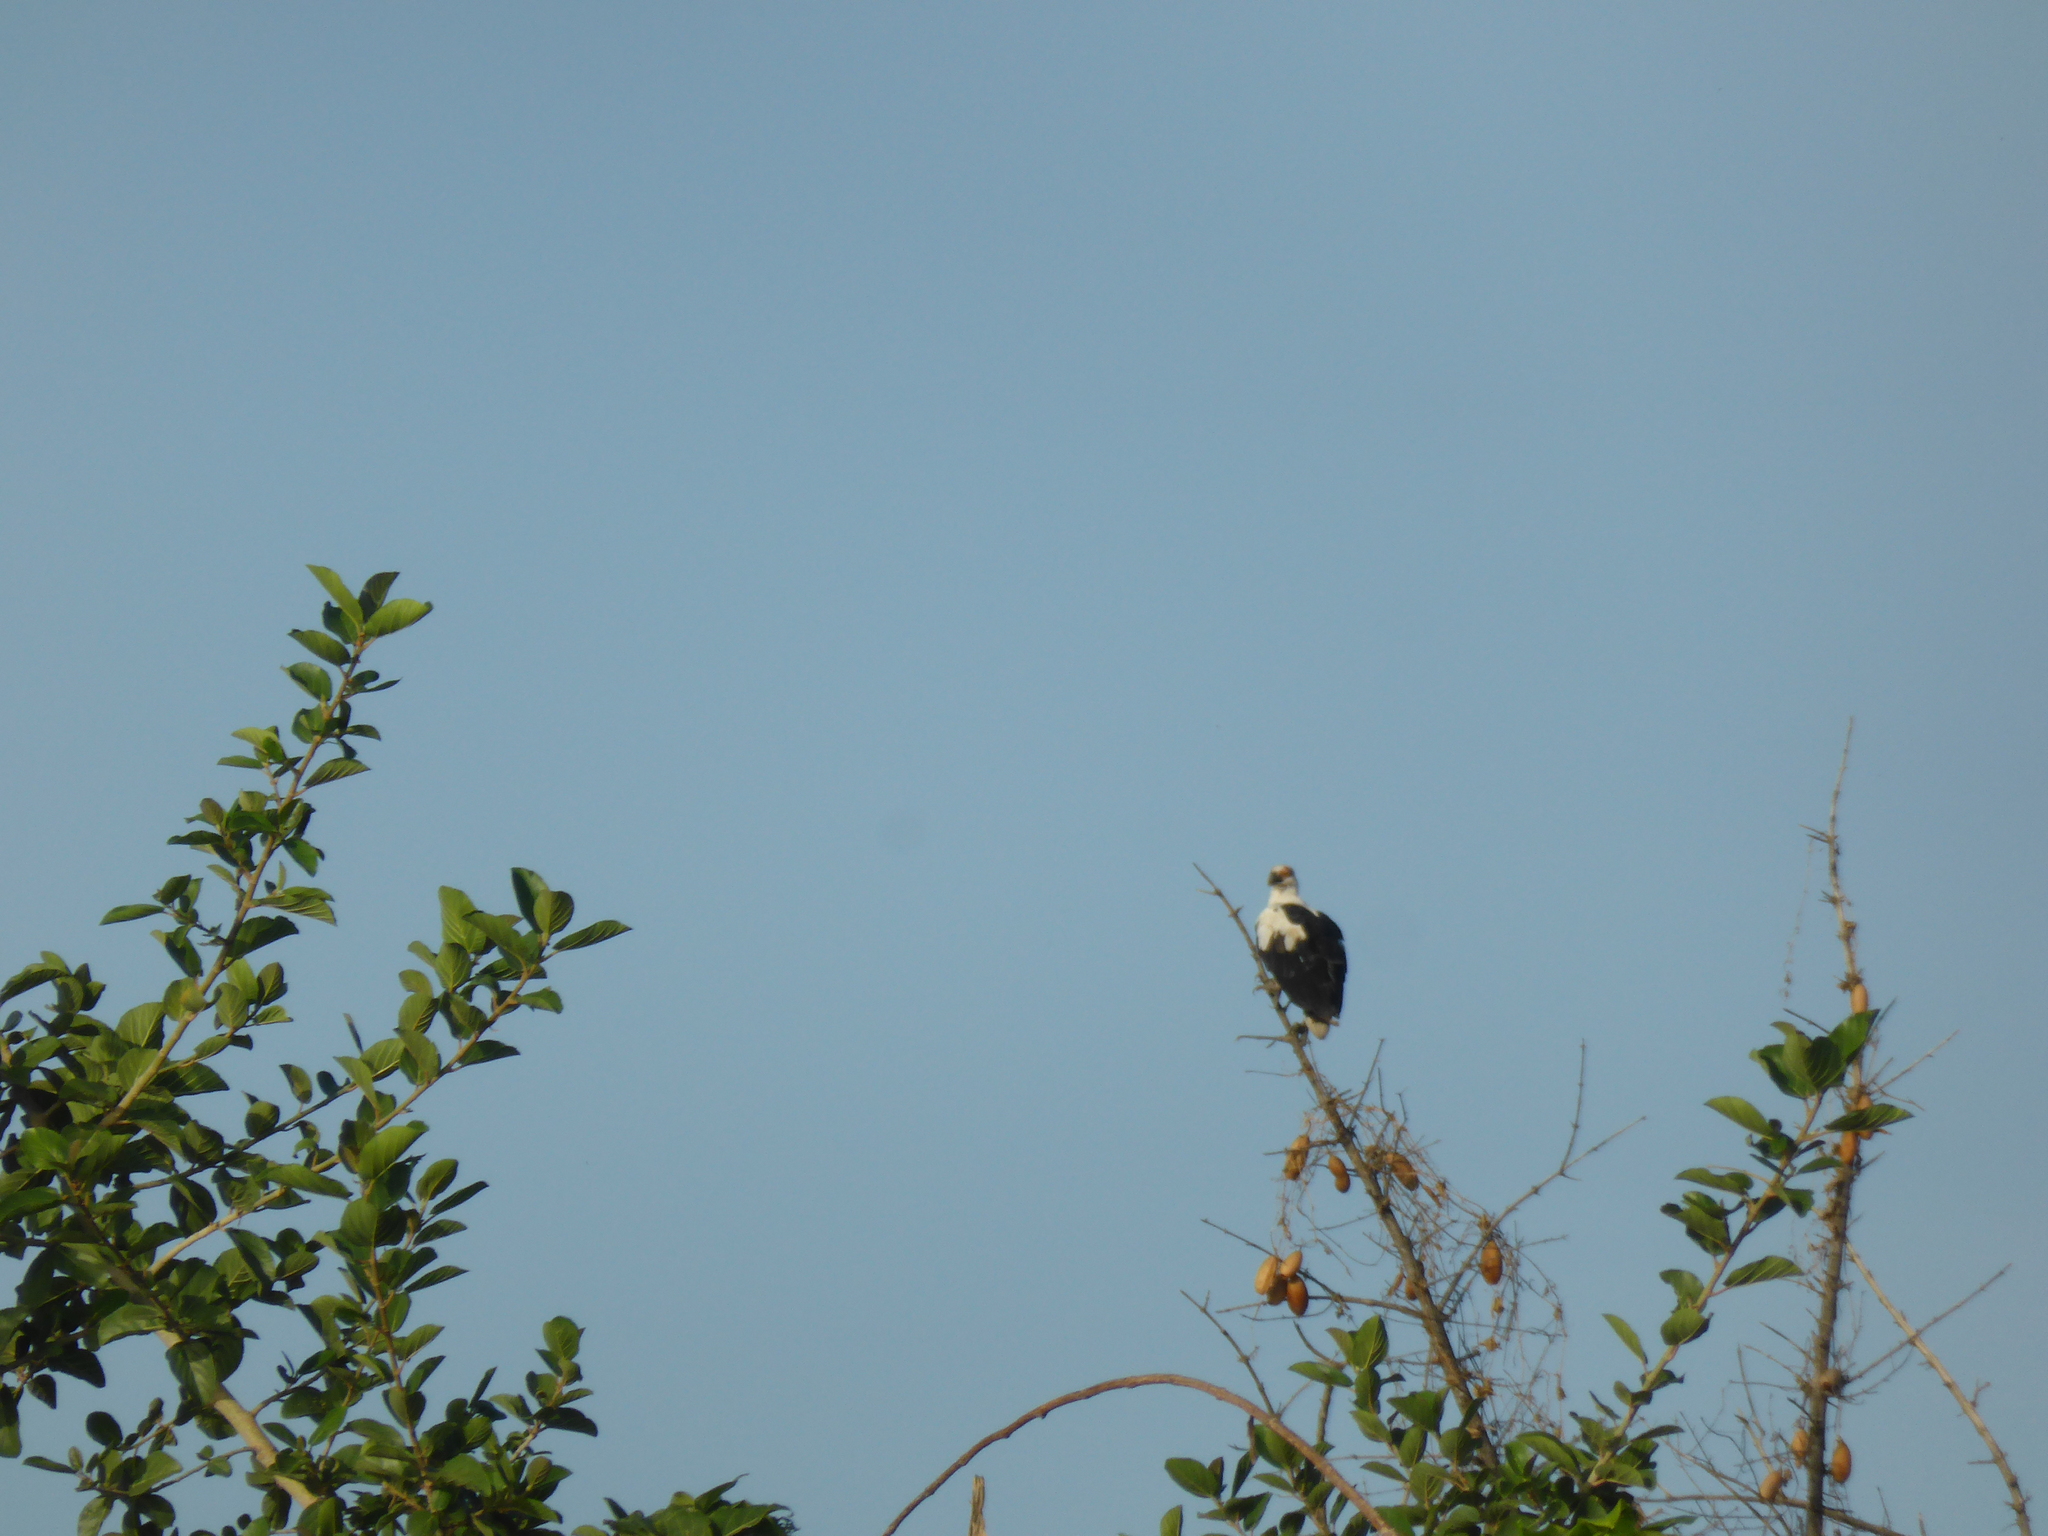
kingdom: Animalia
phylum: Chordata
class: Aves
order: Accipitriformes
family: Accipitridae
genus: Gypohierax
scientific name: Gypohierax angolensis
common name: Palm-nut vulture
